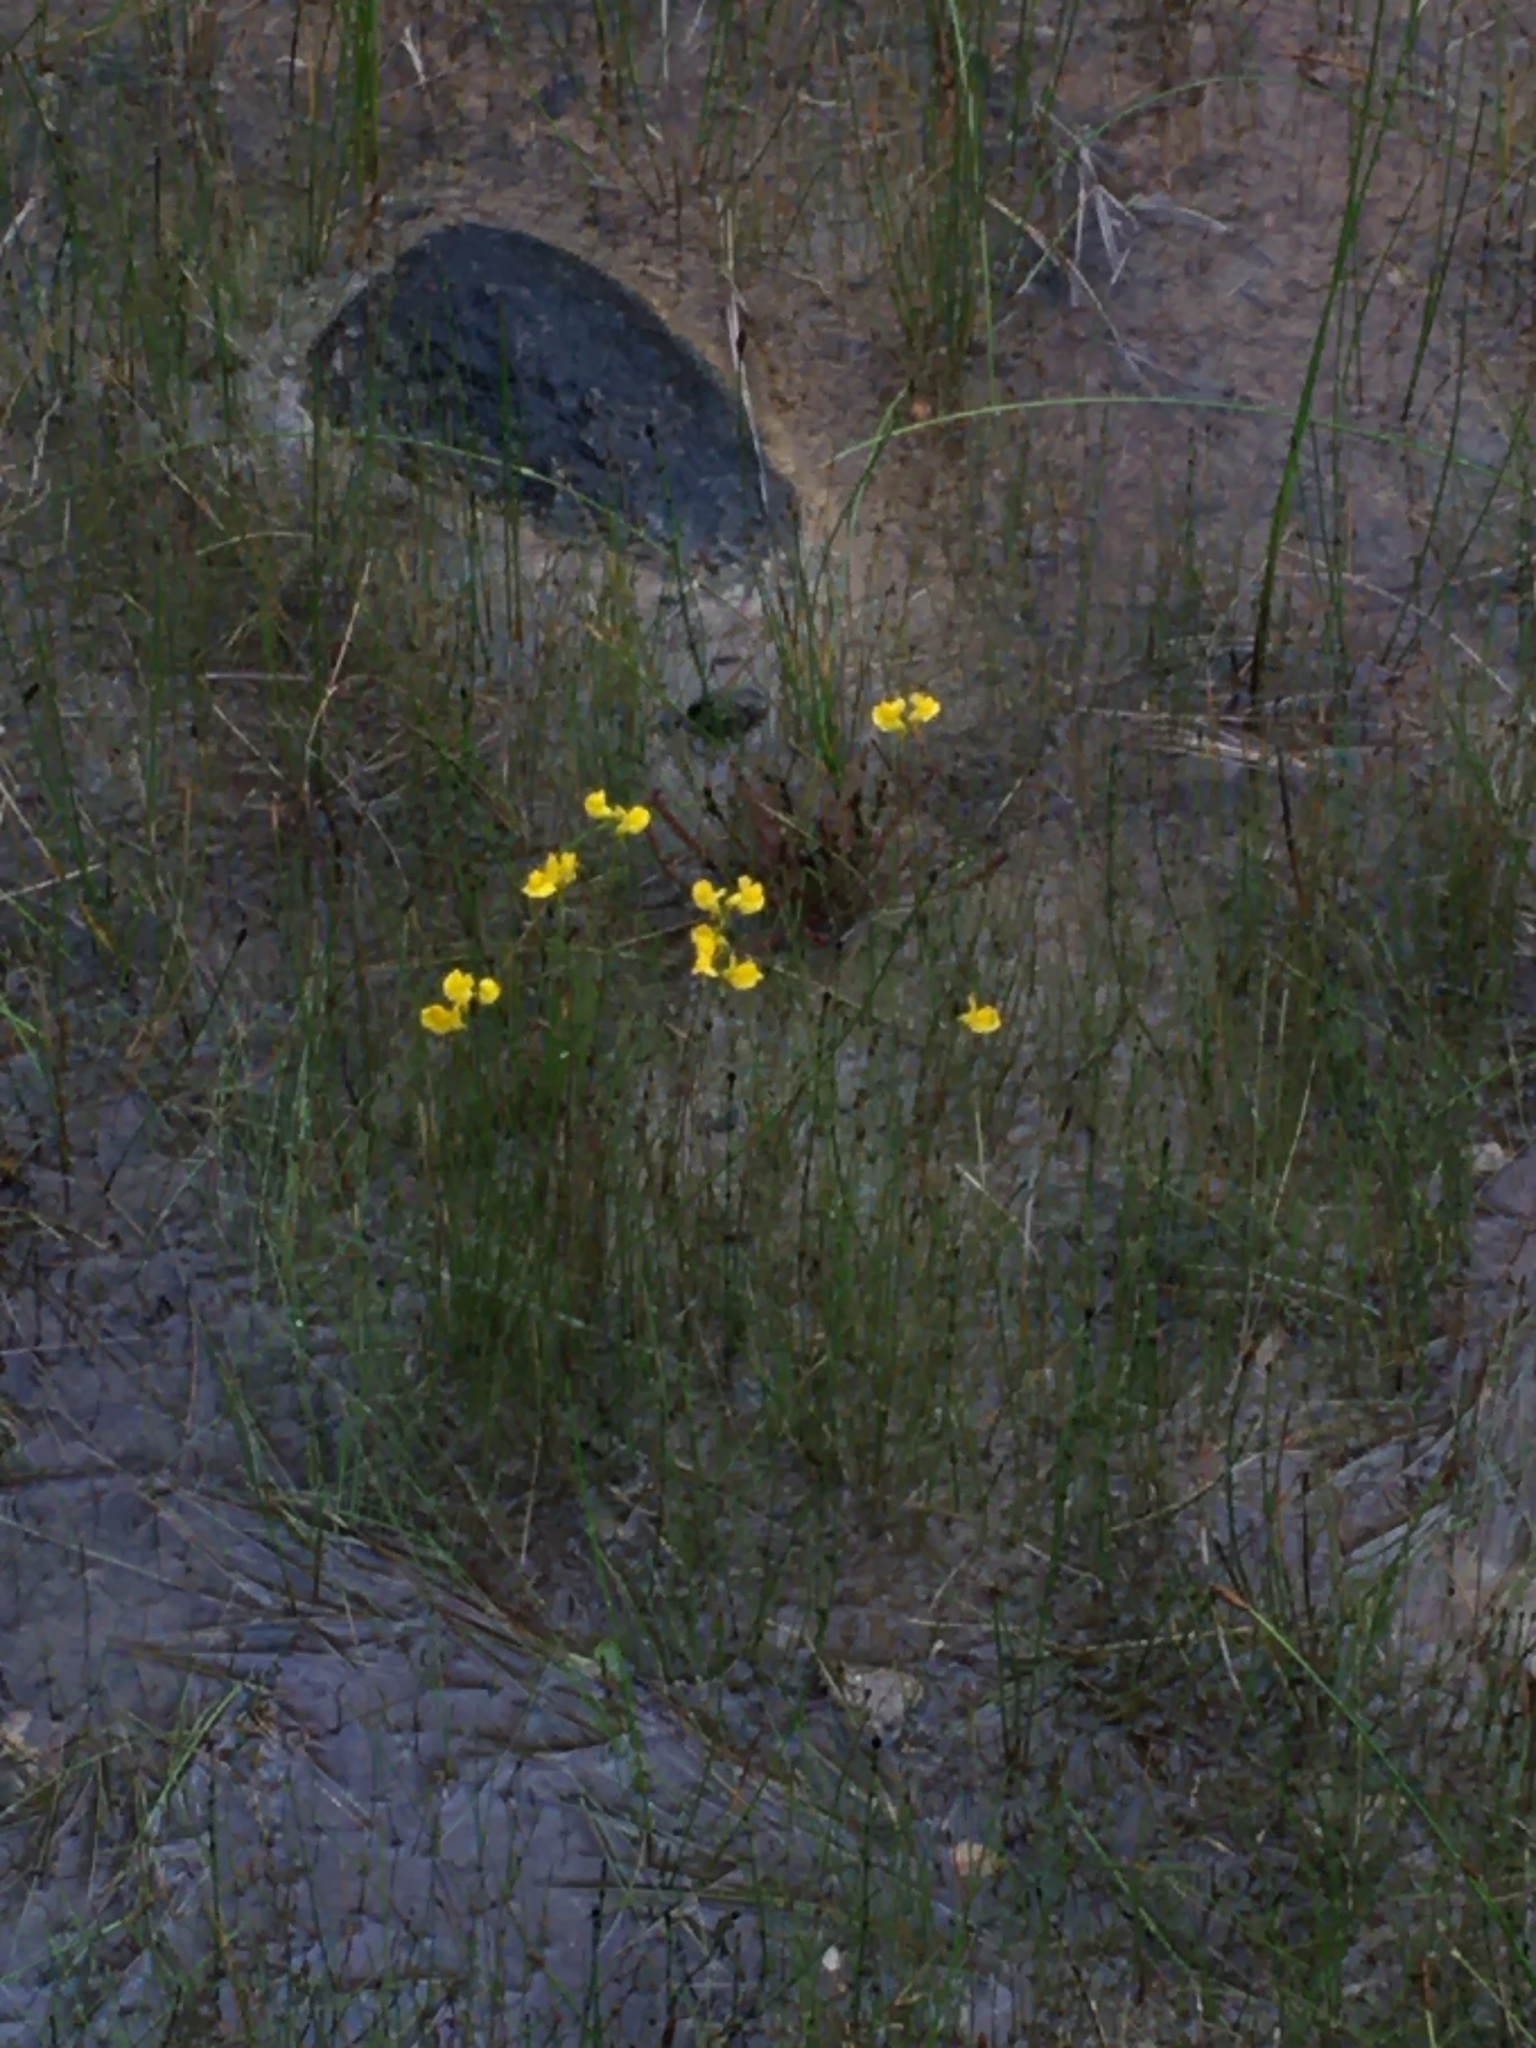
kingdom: Plantae
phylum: Tracheophyta
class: Magnoliopsida
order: Lamiales
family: Lentibulariaceae
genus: Utricularia
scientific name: Utricularia cornuta
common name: Horned bladderwort
